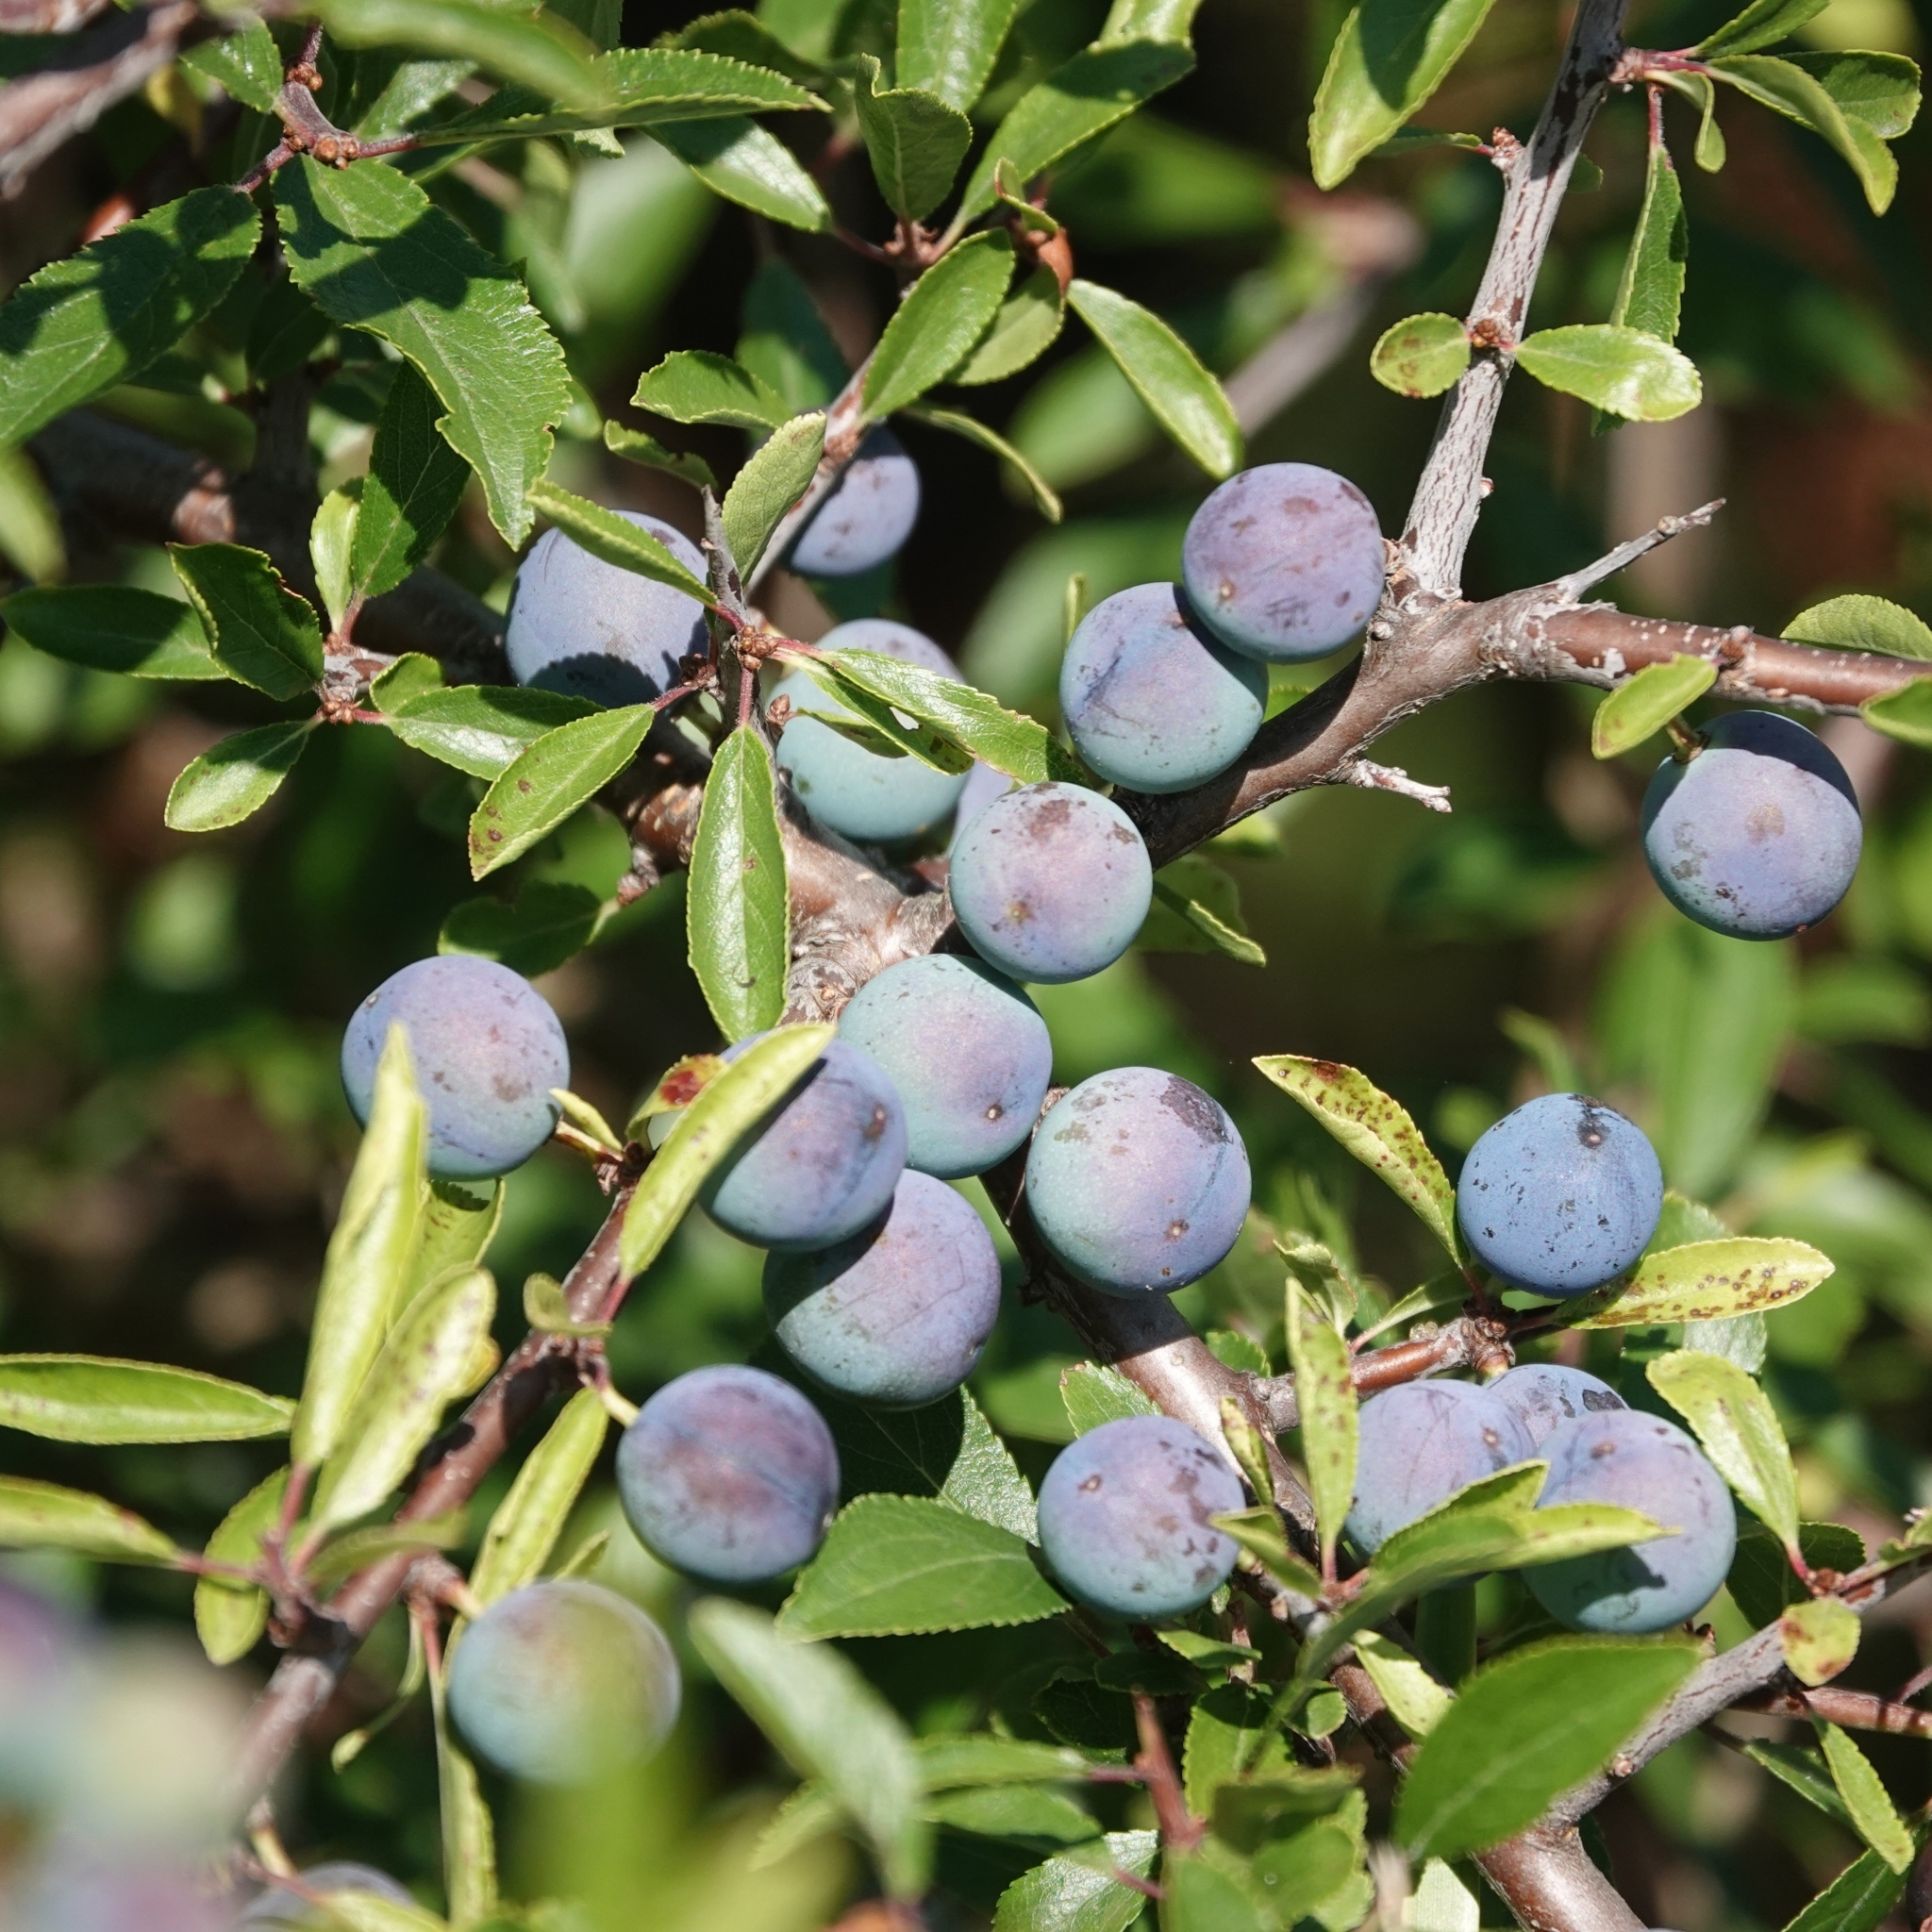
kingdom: Plantae
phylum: Tracheophyta
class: Magnoliopsida
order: Rosales
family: Rosaceae
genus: Prunus
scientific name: Prunus spinosa
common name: Blackthorn
